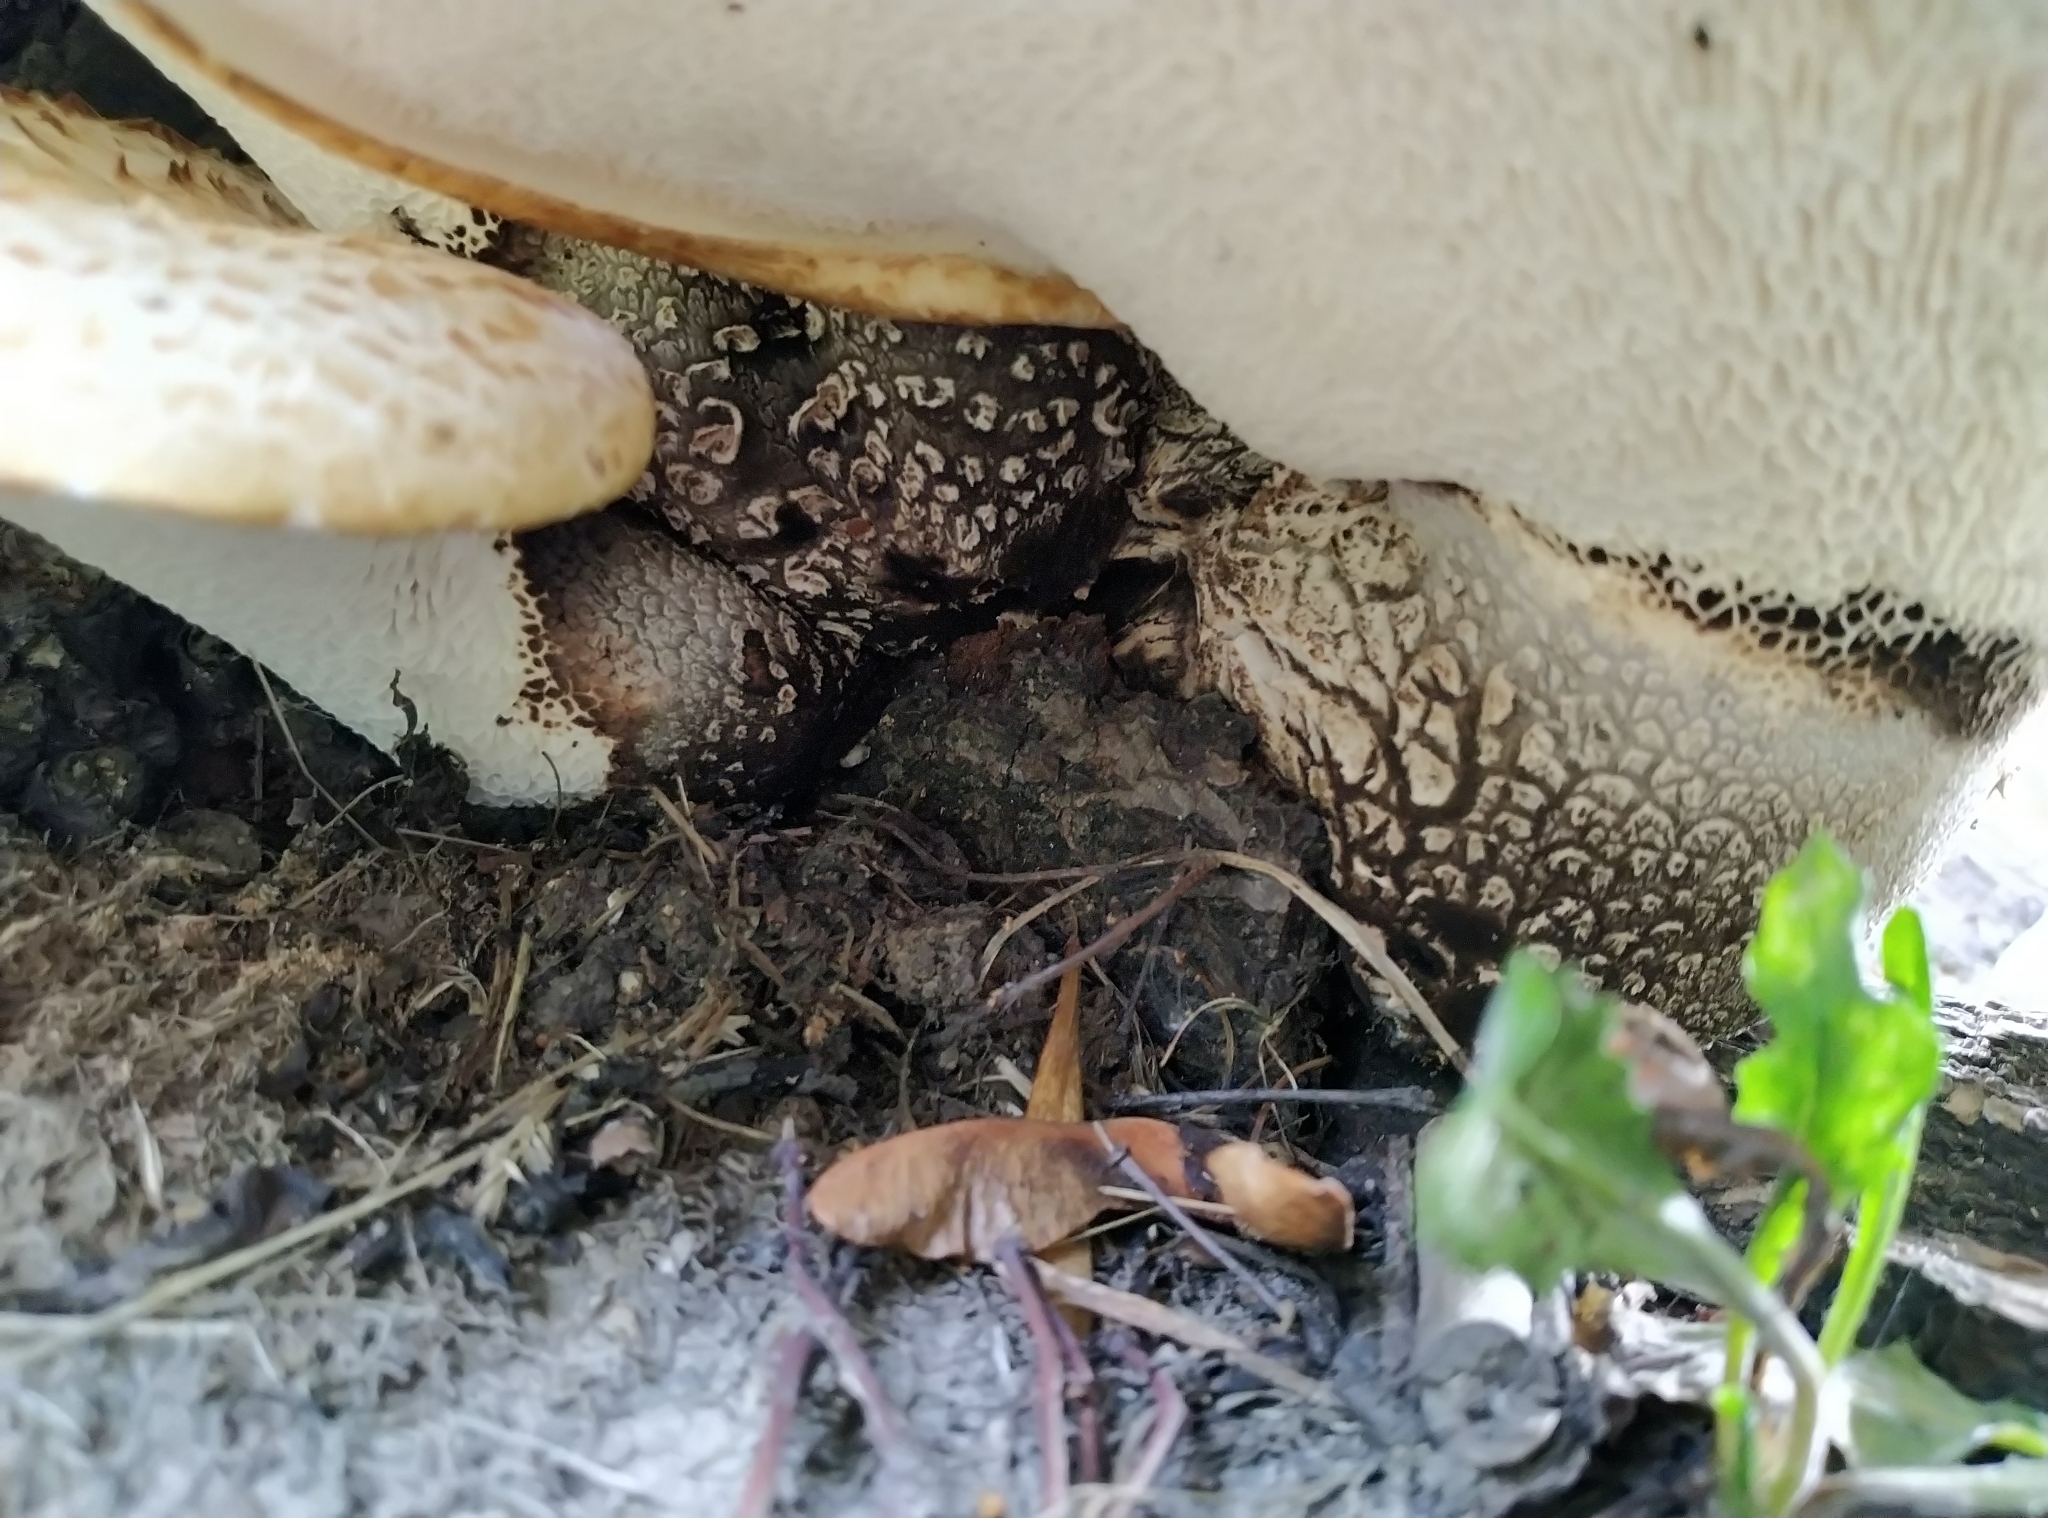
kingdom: Fungi
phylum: Basidiomycota
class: Agaricomycetes
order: Polyporales
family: Polyporaceae
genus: Cerioporus
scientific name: Cerioporus squamosus
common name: Dryad's saddle
